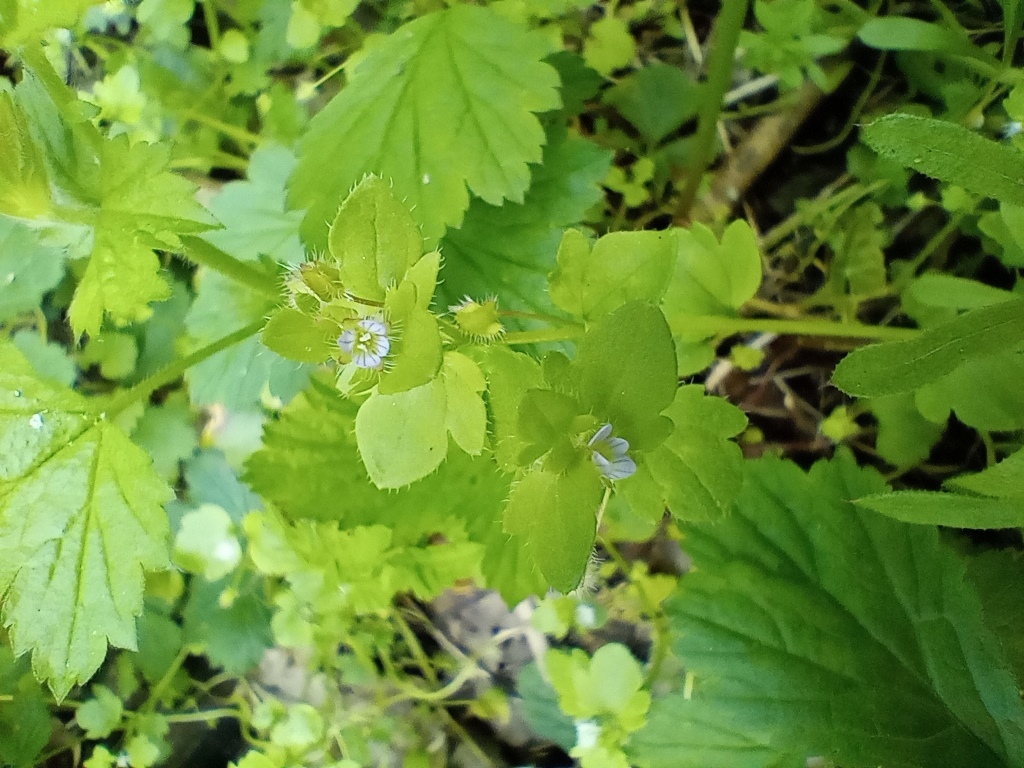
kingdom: Plantae
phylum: Tracheophyta
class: Magnoliopsida
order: Lamiales
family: Plantaginaceae
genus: Veronica
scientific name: Veronica sublobata
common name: False ivy-leaved speedwell
